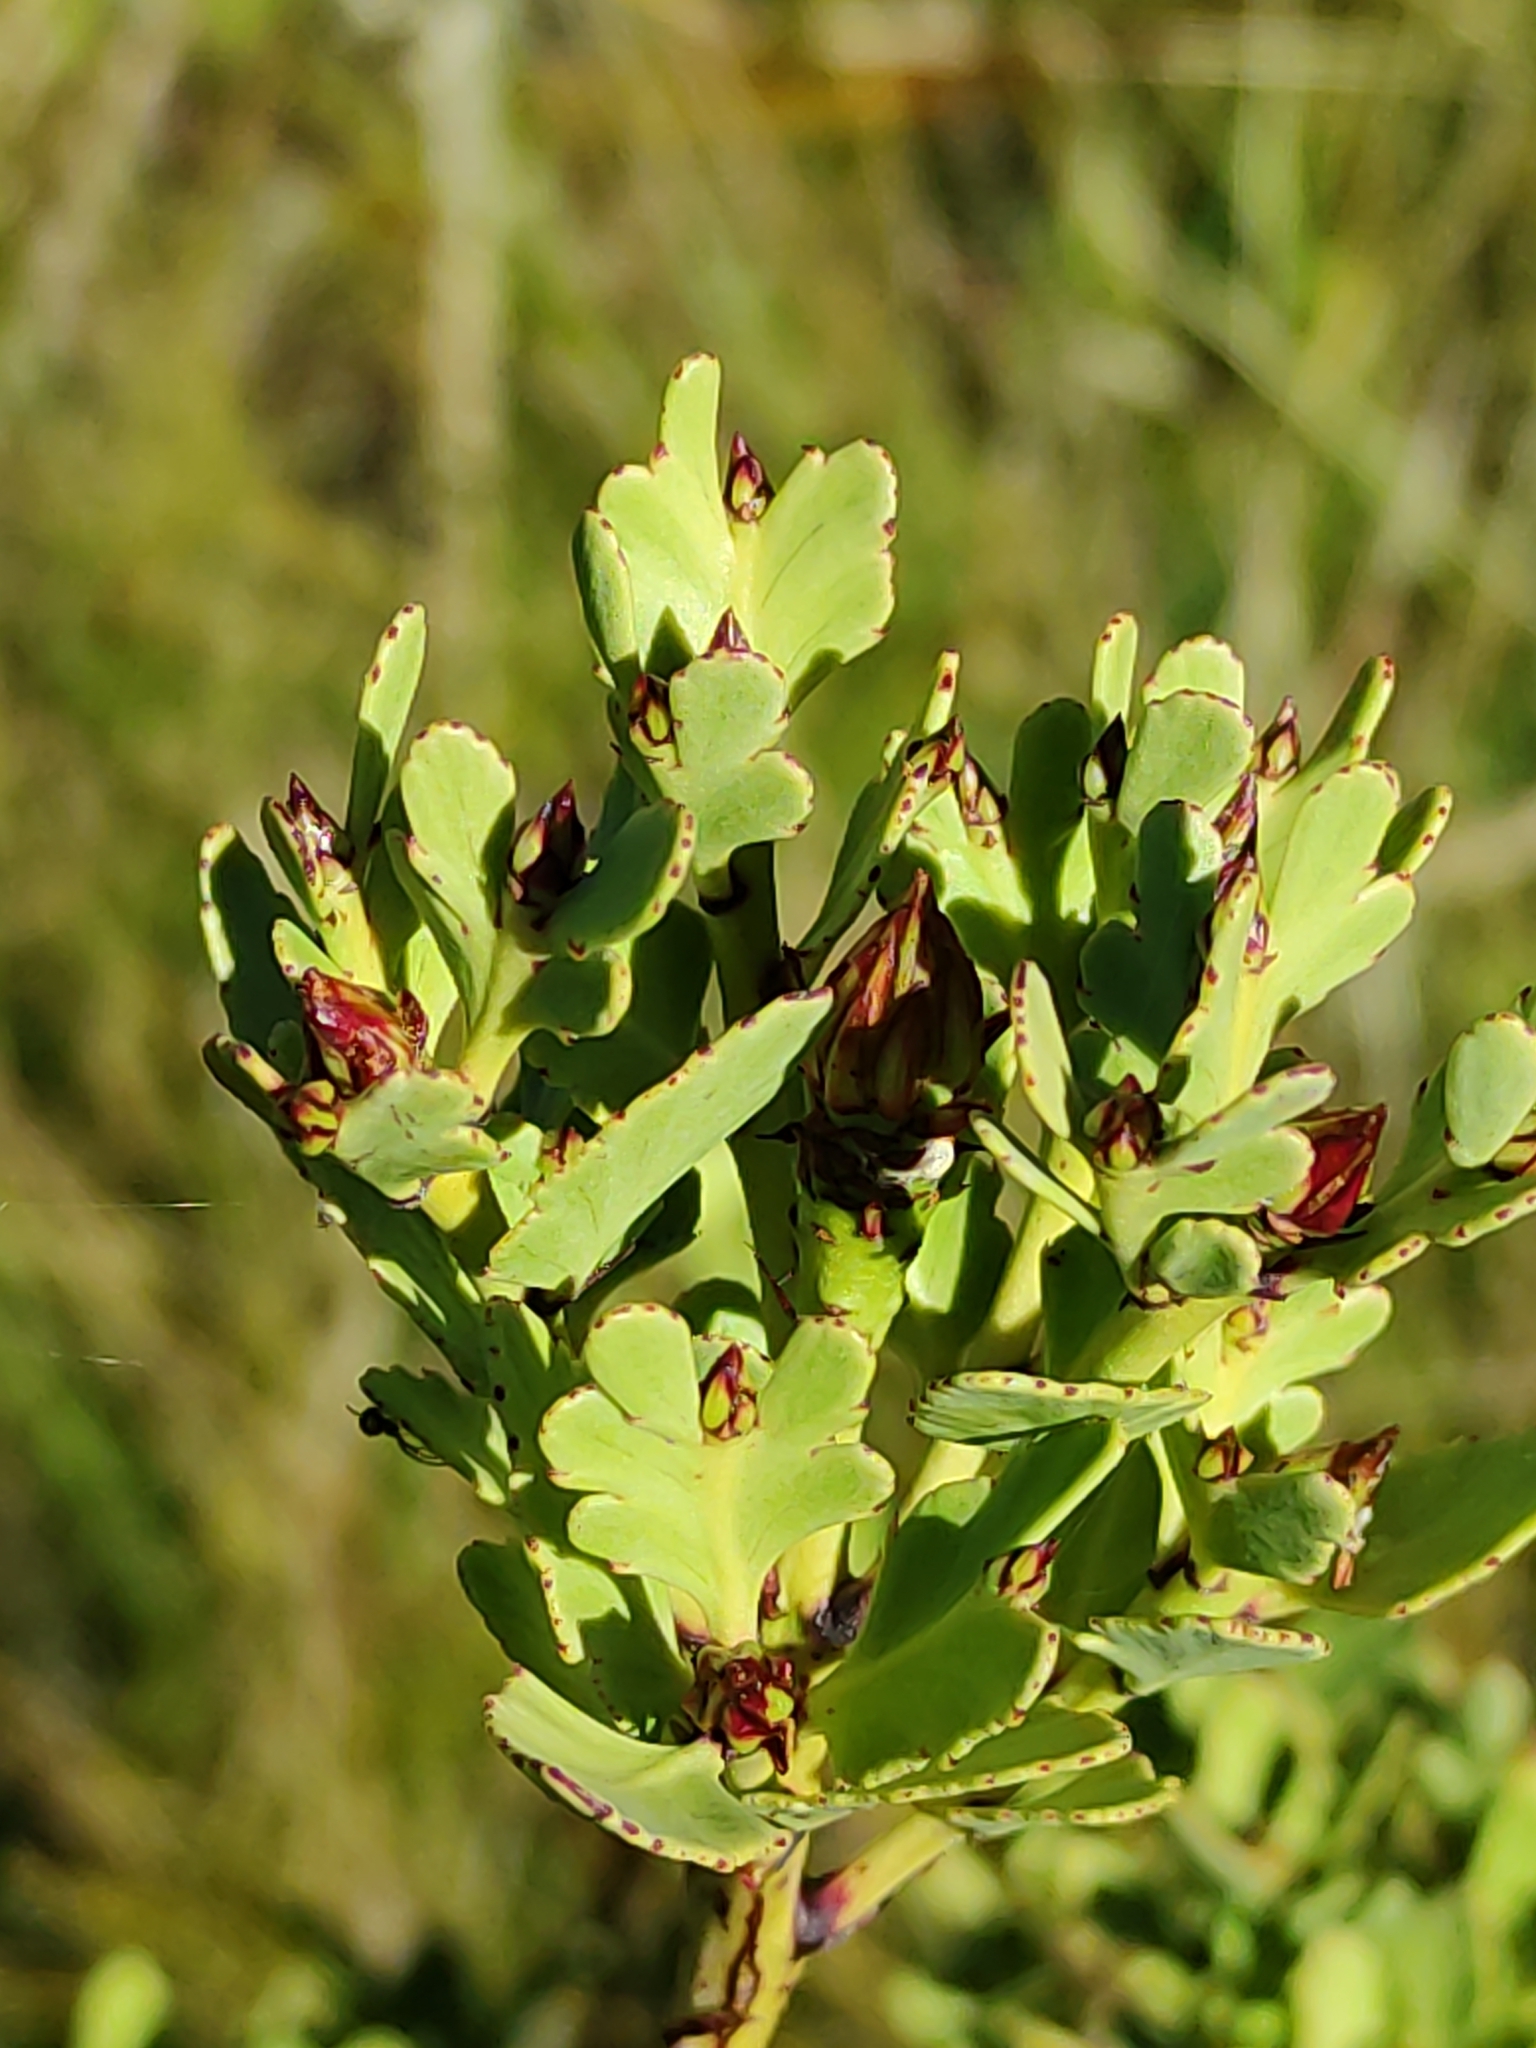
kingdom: Plantae
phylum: Tracheophyta
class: Pinopsida
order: Pinales
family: Phyllocladaceae
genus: Phyllocladus
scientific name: Phyllocladus trichomanoides
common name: Celery pine
